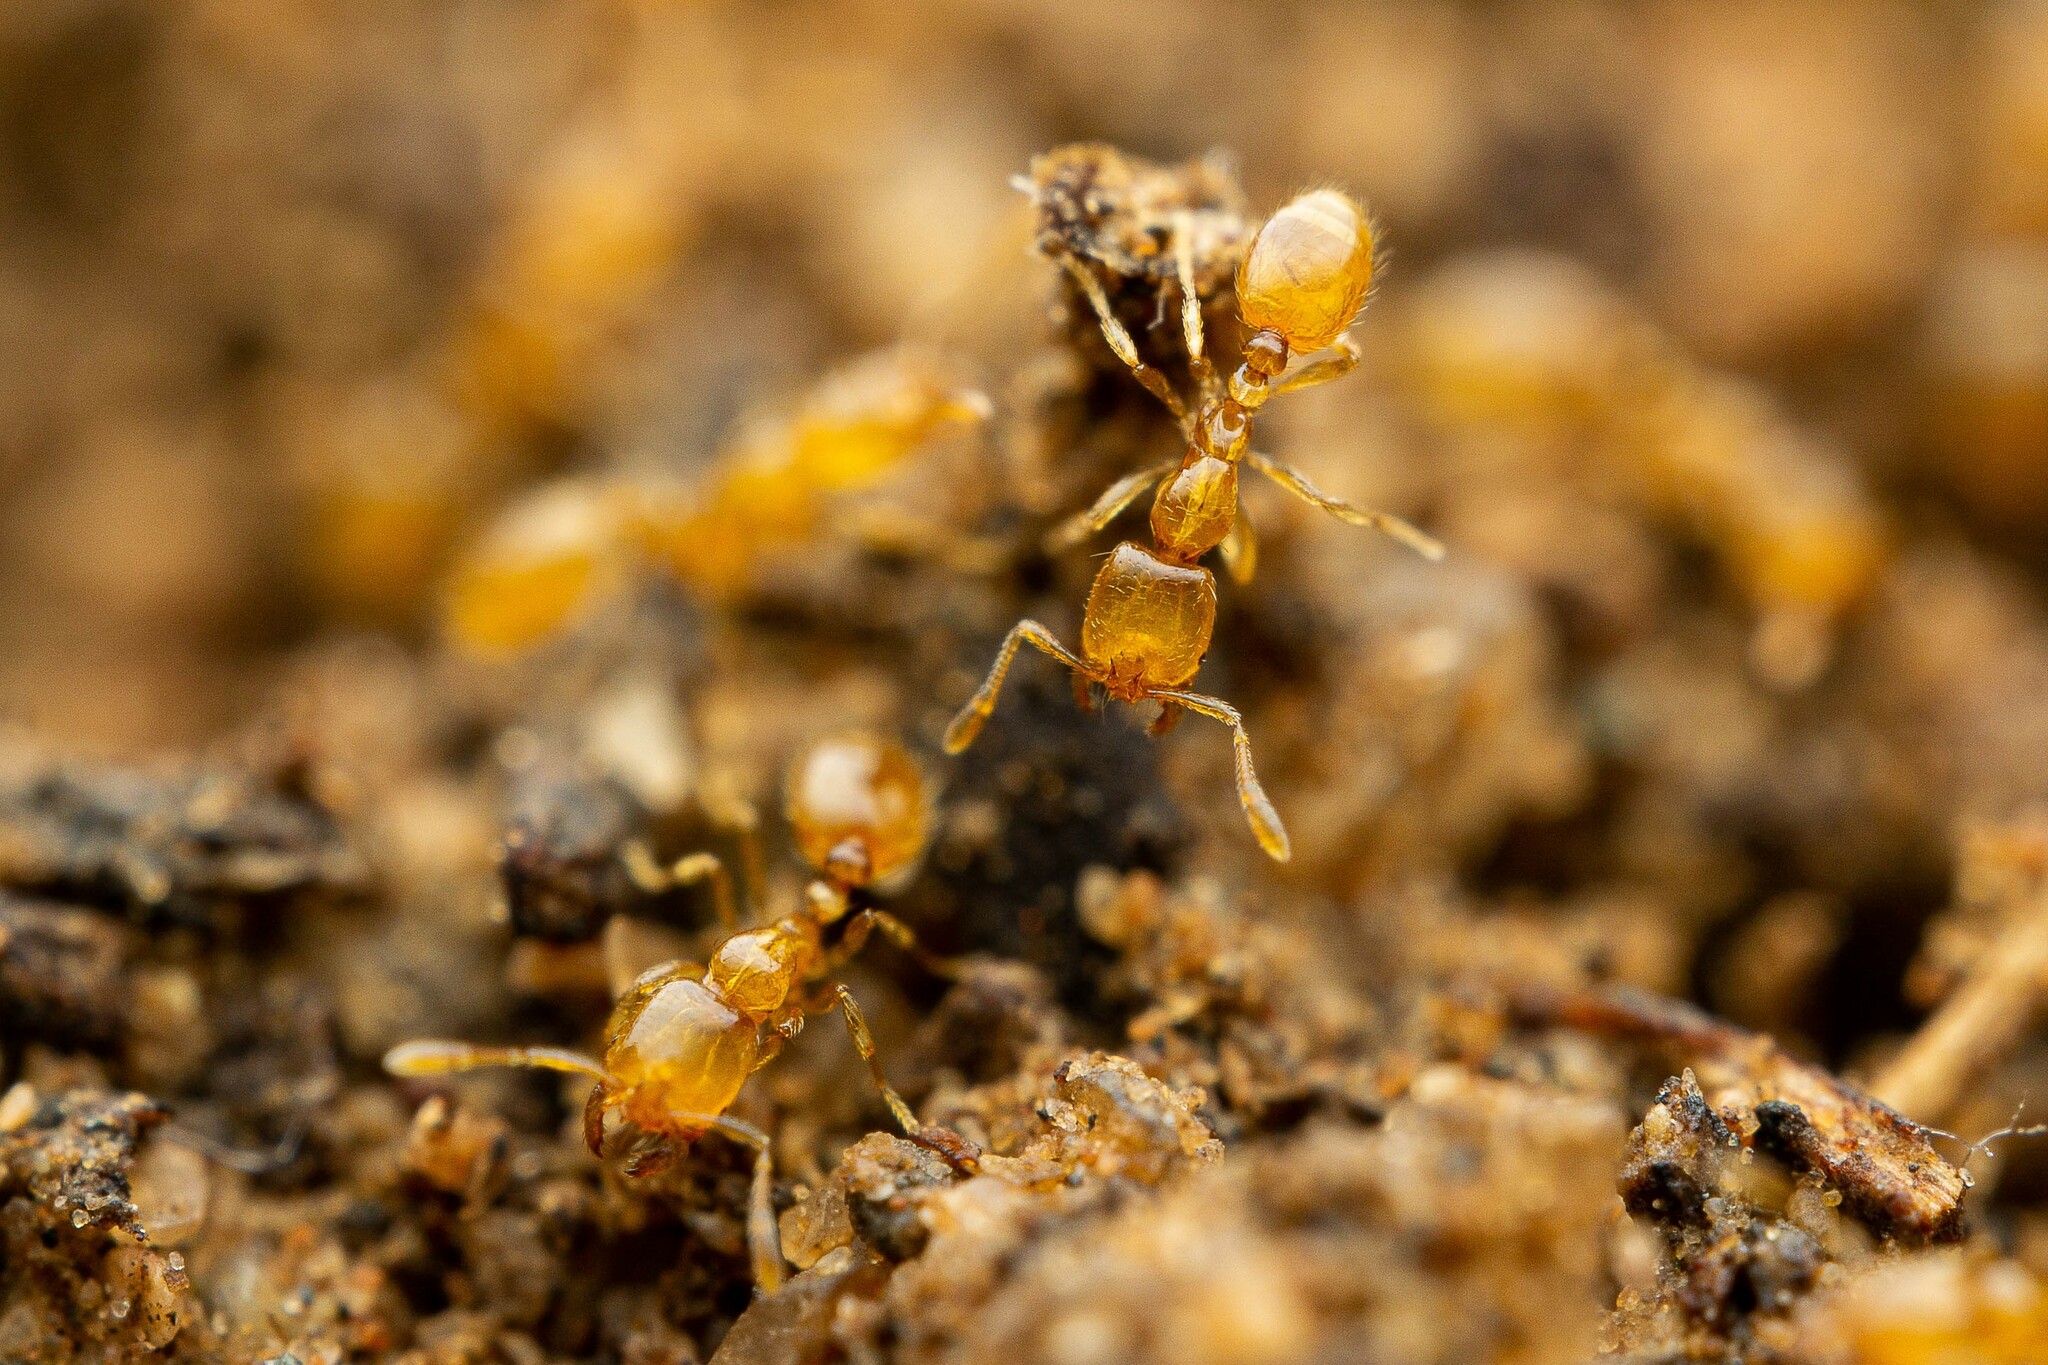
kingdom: Animalia
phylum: Arthropoda
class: Insecta
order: Hymenoptera
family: Formicidae
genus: Solenopsis
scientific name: Solenopsis krockowi
